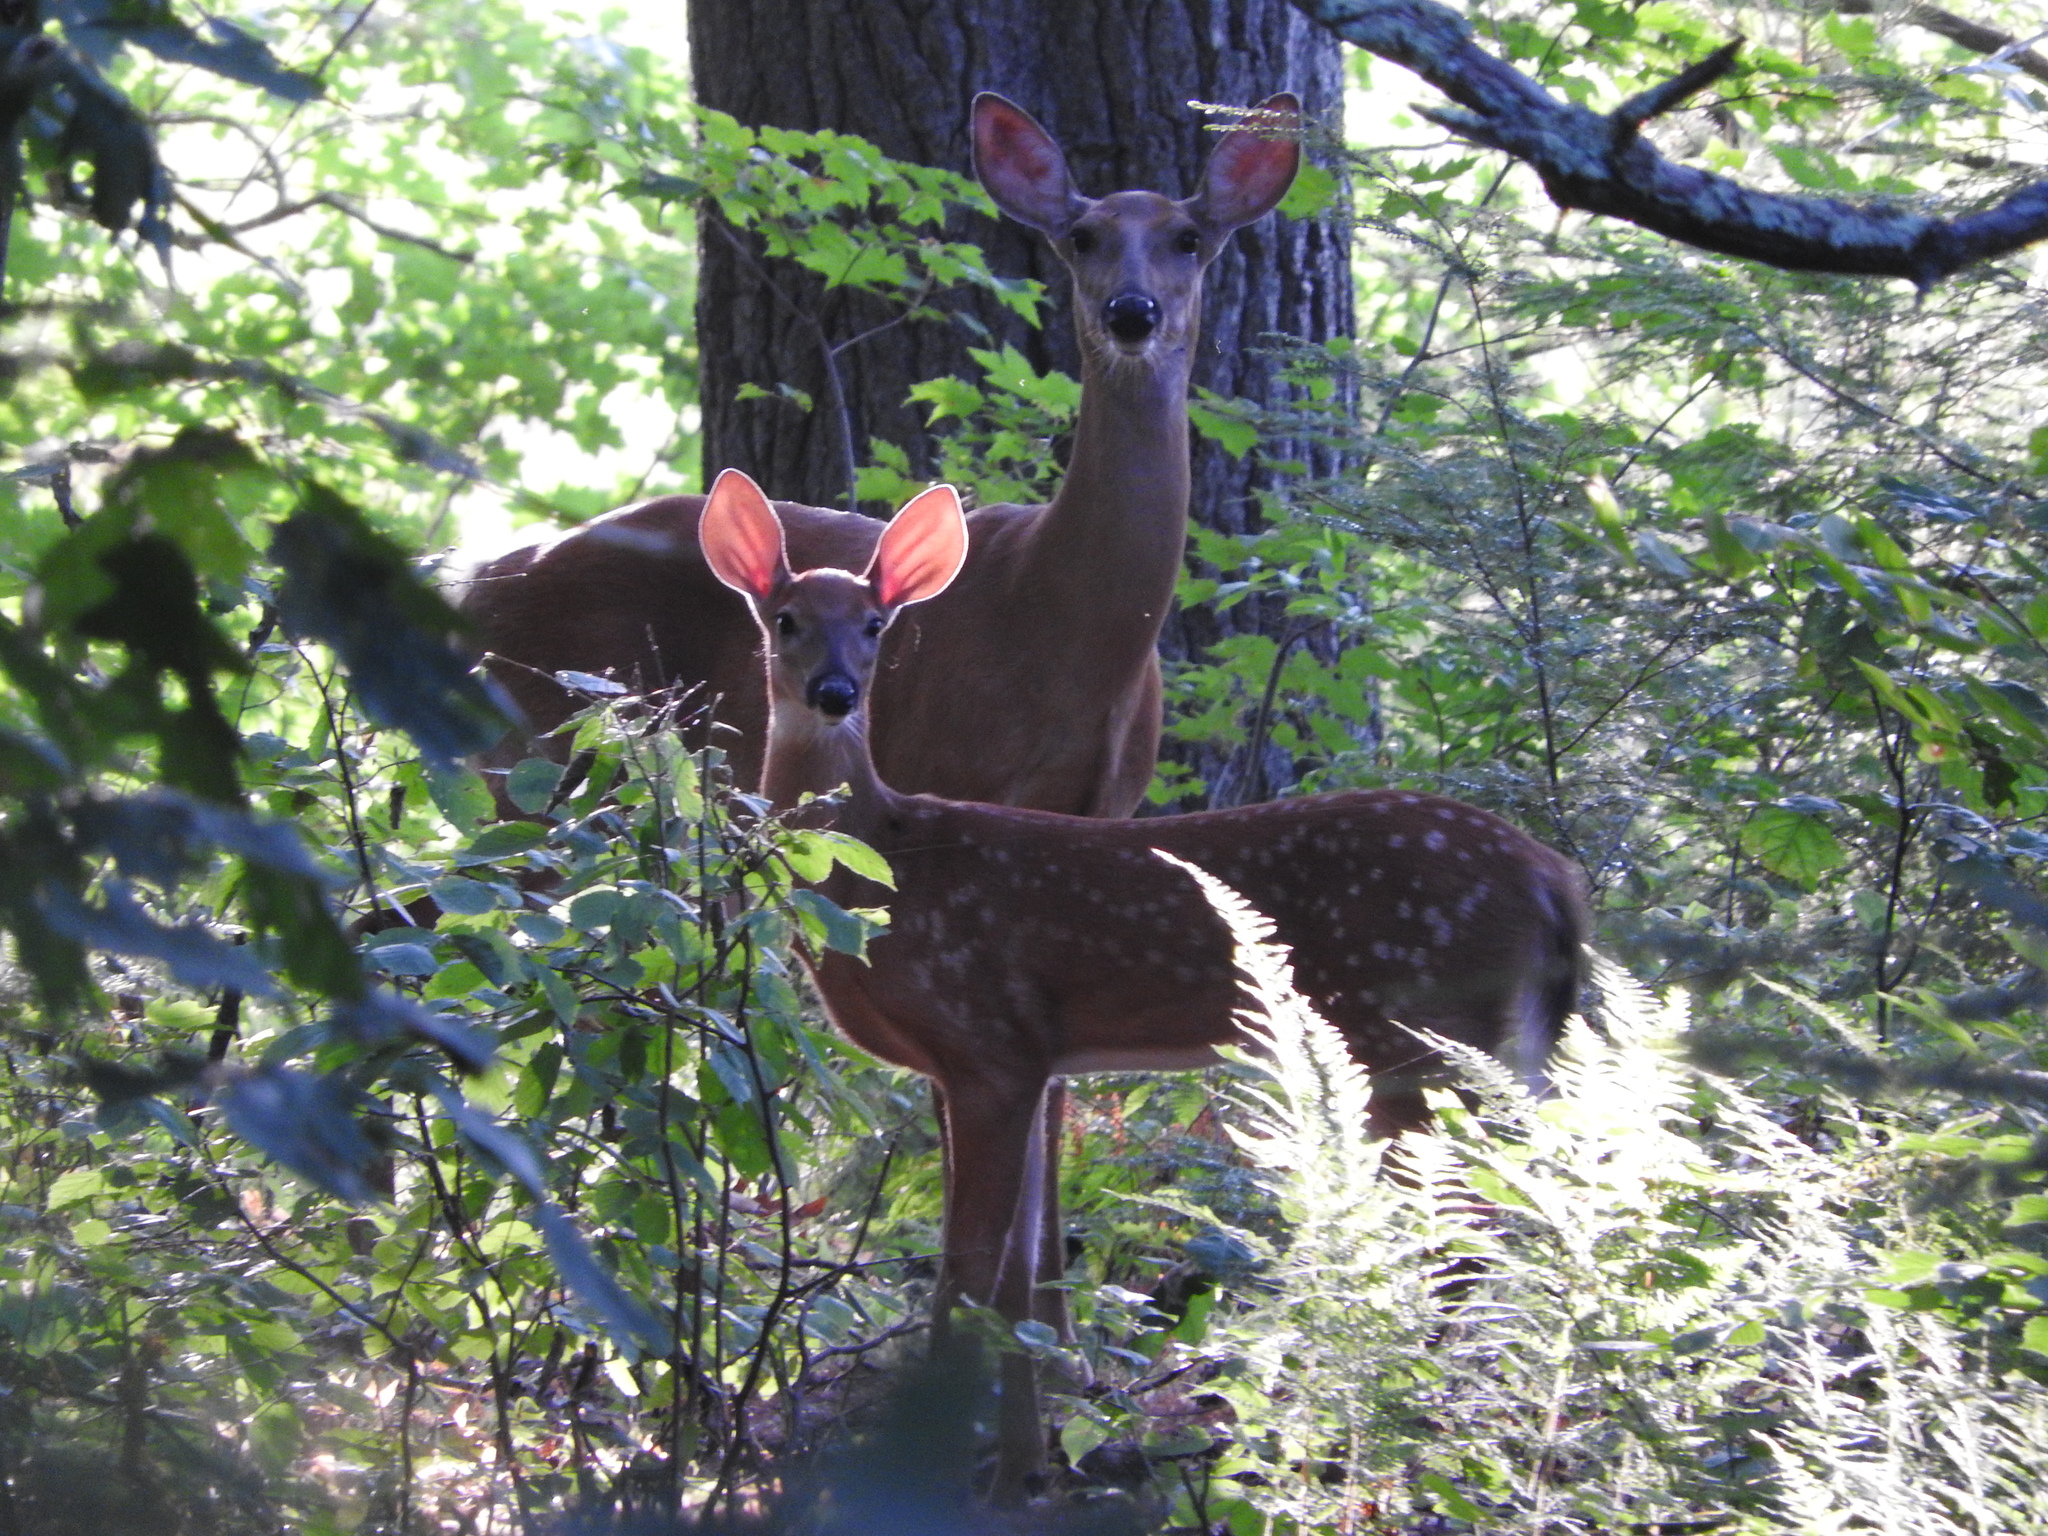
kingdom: Animalia
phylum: Chordata
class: Mammalia
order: Artiodactyla
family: Cervidae
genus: Odocoileus
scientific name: Odocoileus virginianus
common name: White-tailed deer
